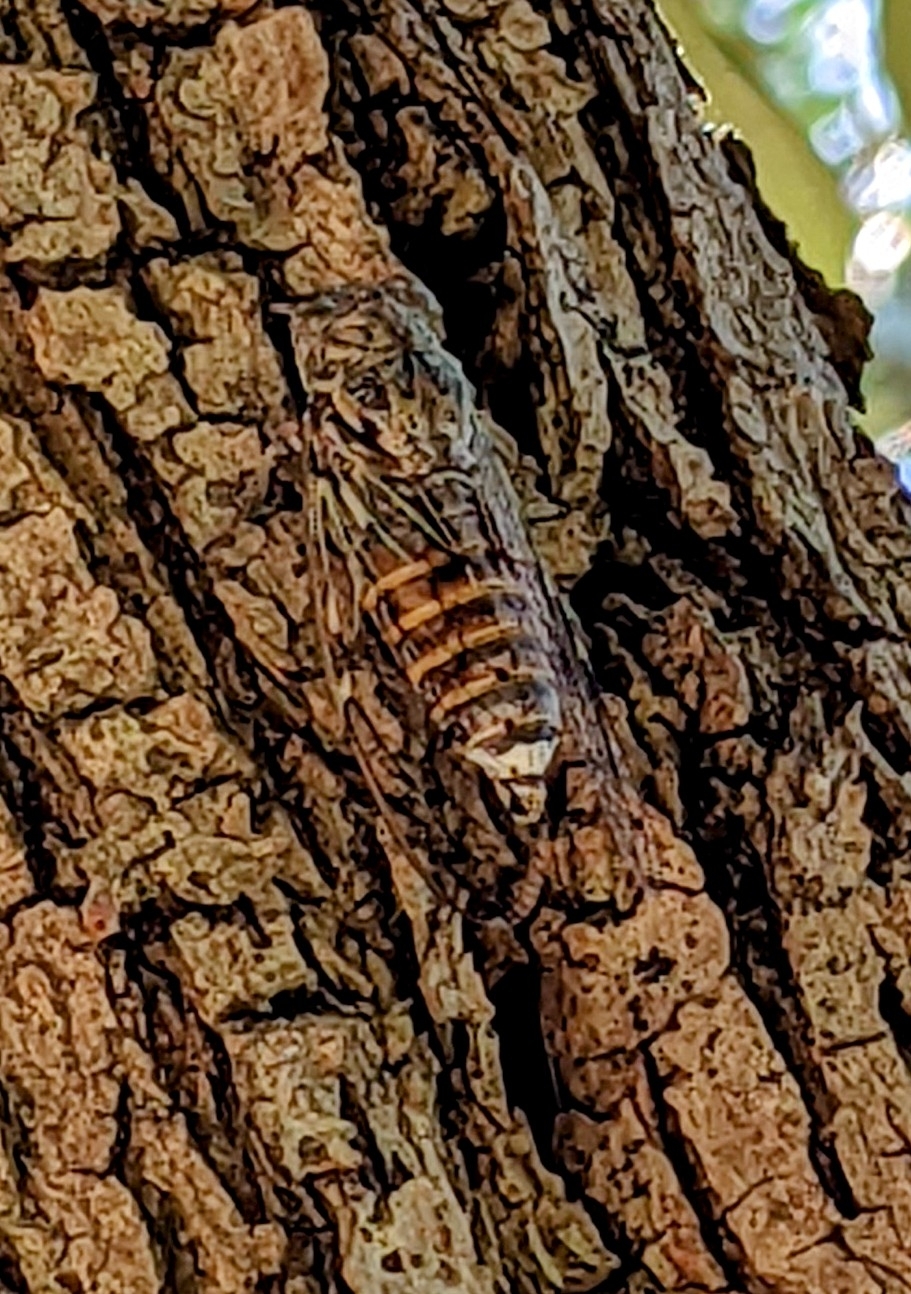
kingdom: Animalia
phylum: Arthropoda
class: Insecta
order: Hemiptera
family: Cicadidae
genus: Cicada
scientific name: Cicada orni
